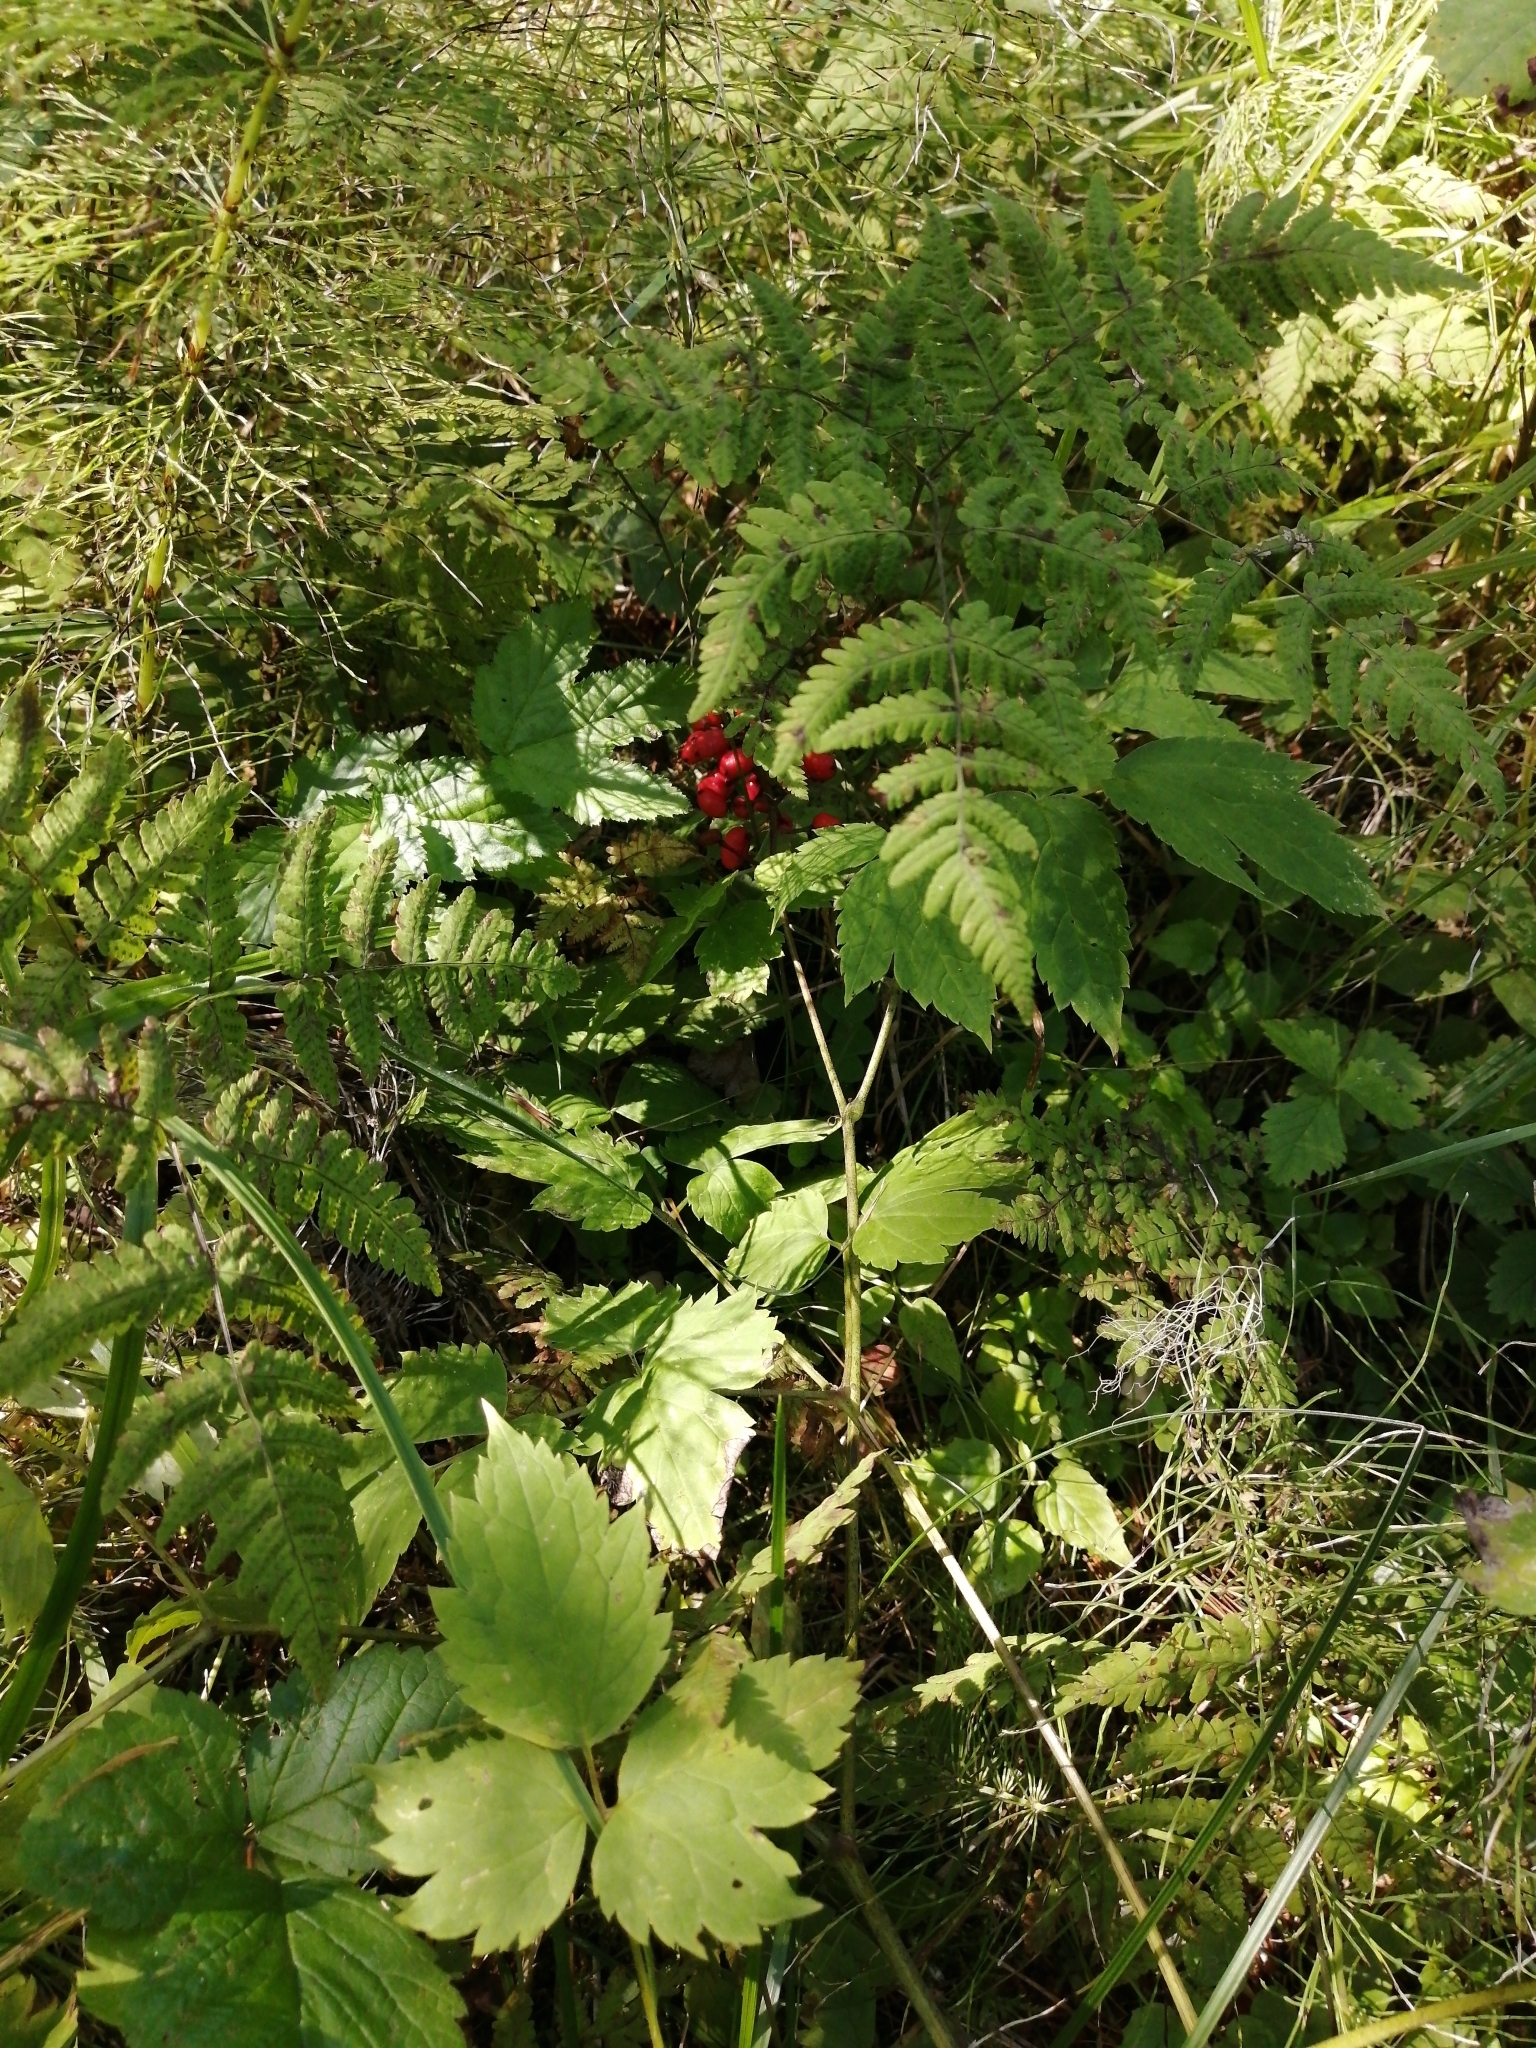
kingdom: Plantae
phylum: Tracheophyta
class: Magnoliopsida
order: Ranunculales
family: Ranunculaceae
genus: Actaea
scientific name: Actaea spicata
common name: Baneberry
